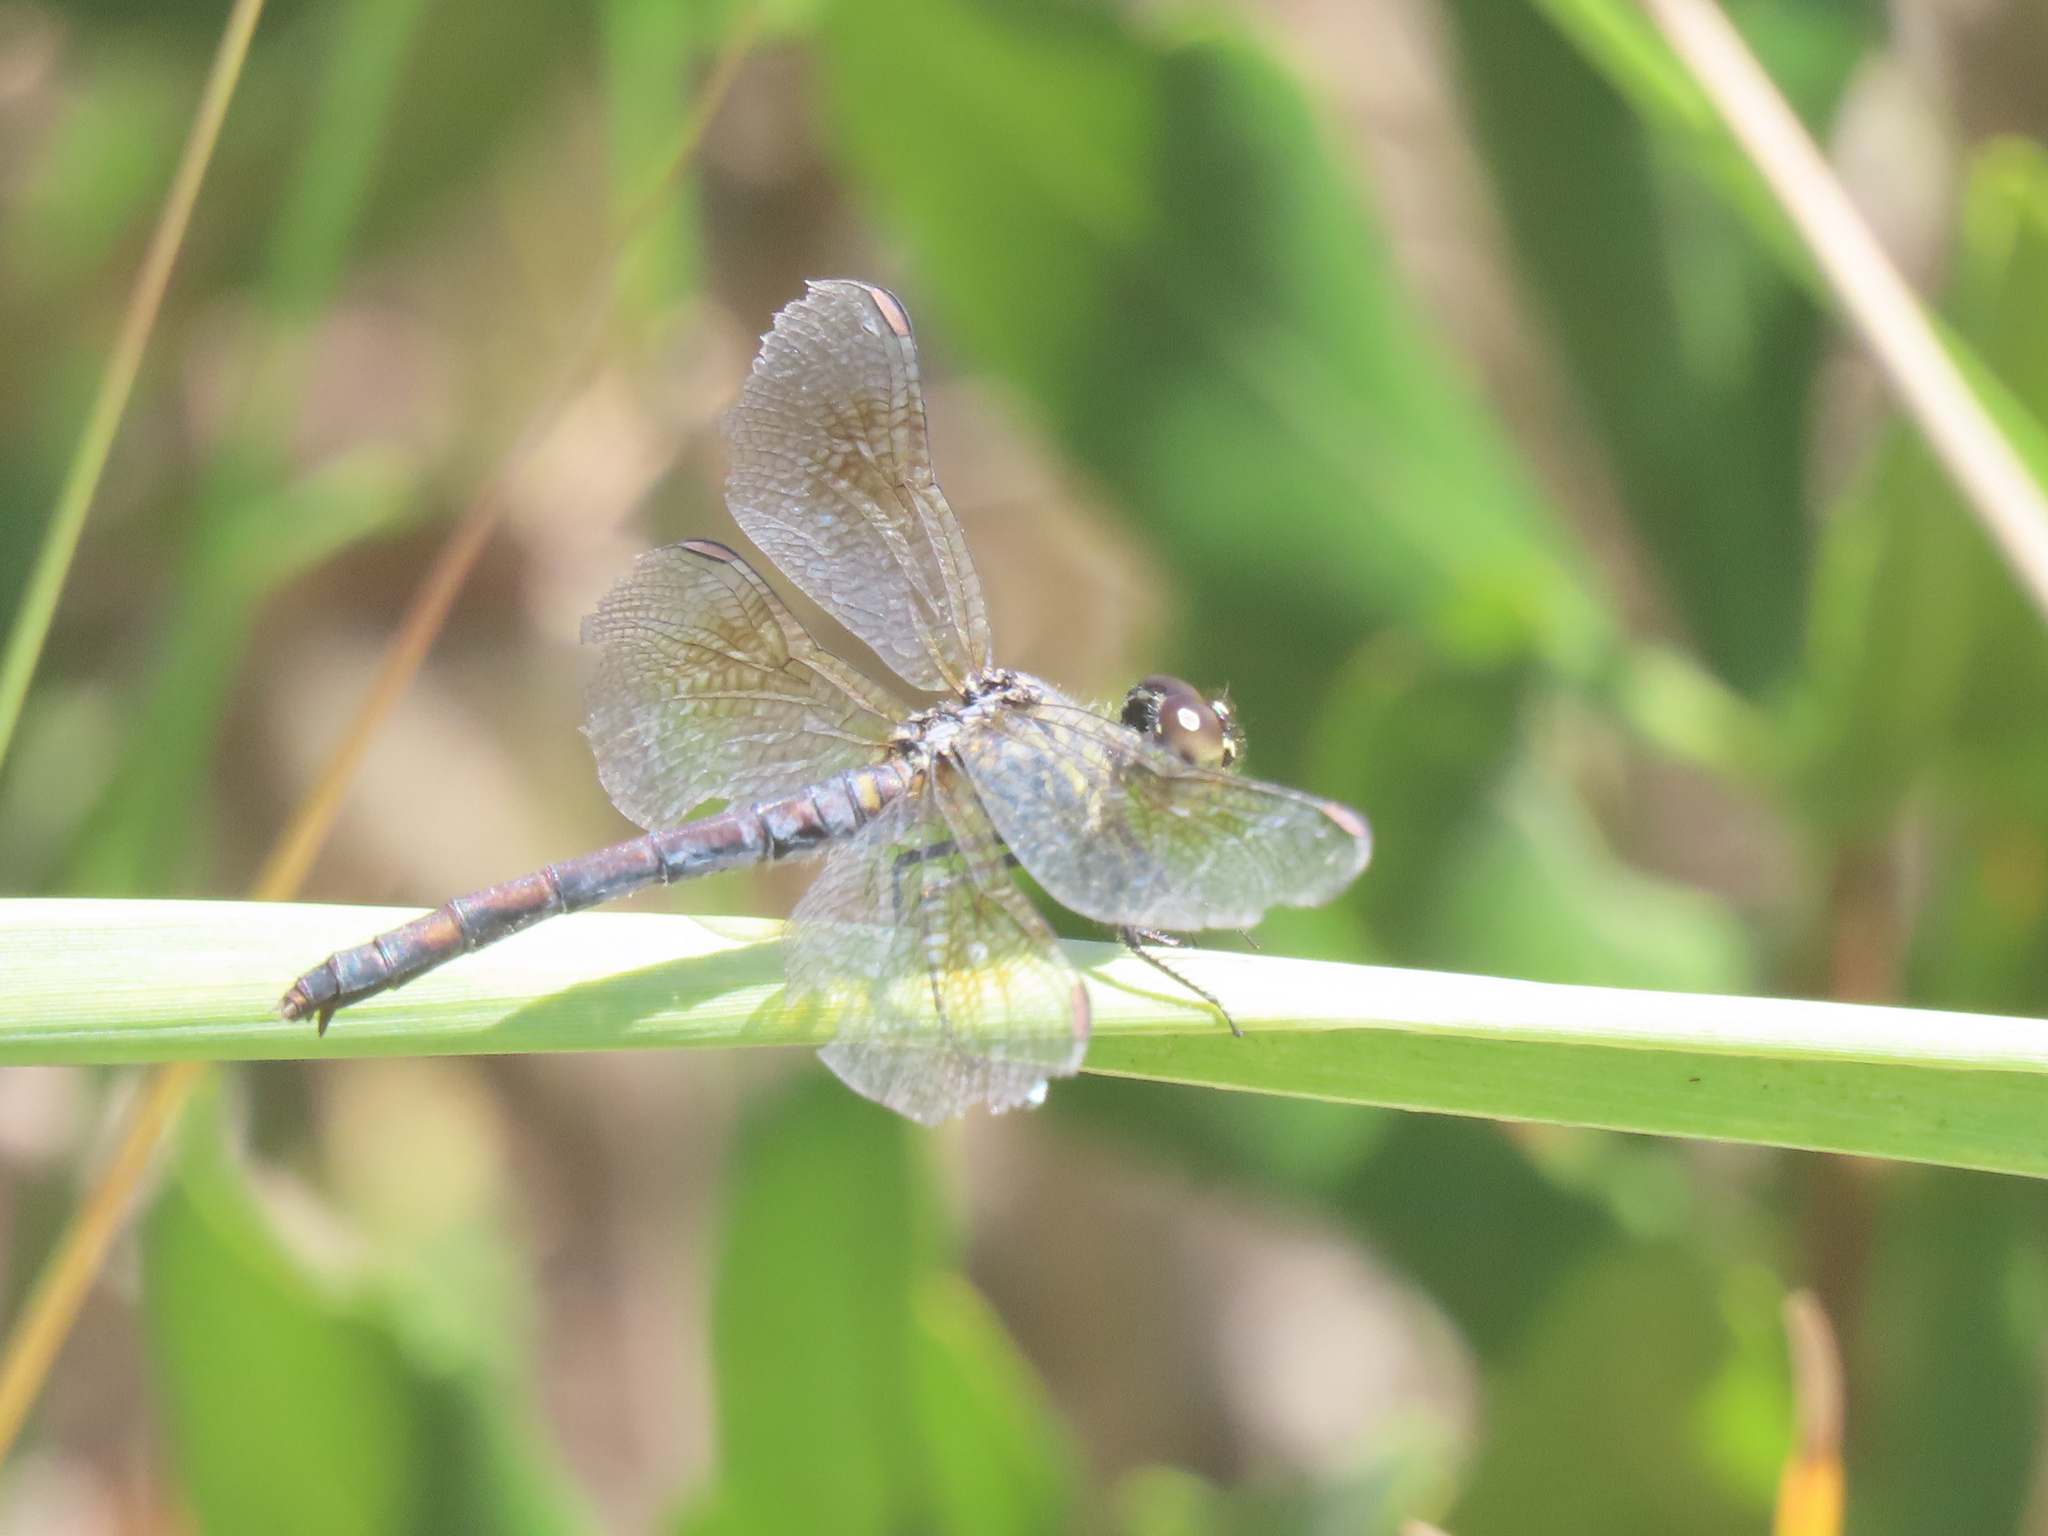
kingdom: Animalia
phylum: Arthropoda
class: Insecta
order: Odonata
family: Libellulidae
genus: Erythrodiplax
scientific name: Erythrodiplax berenice
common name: Seaside dragonlet
